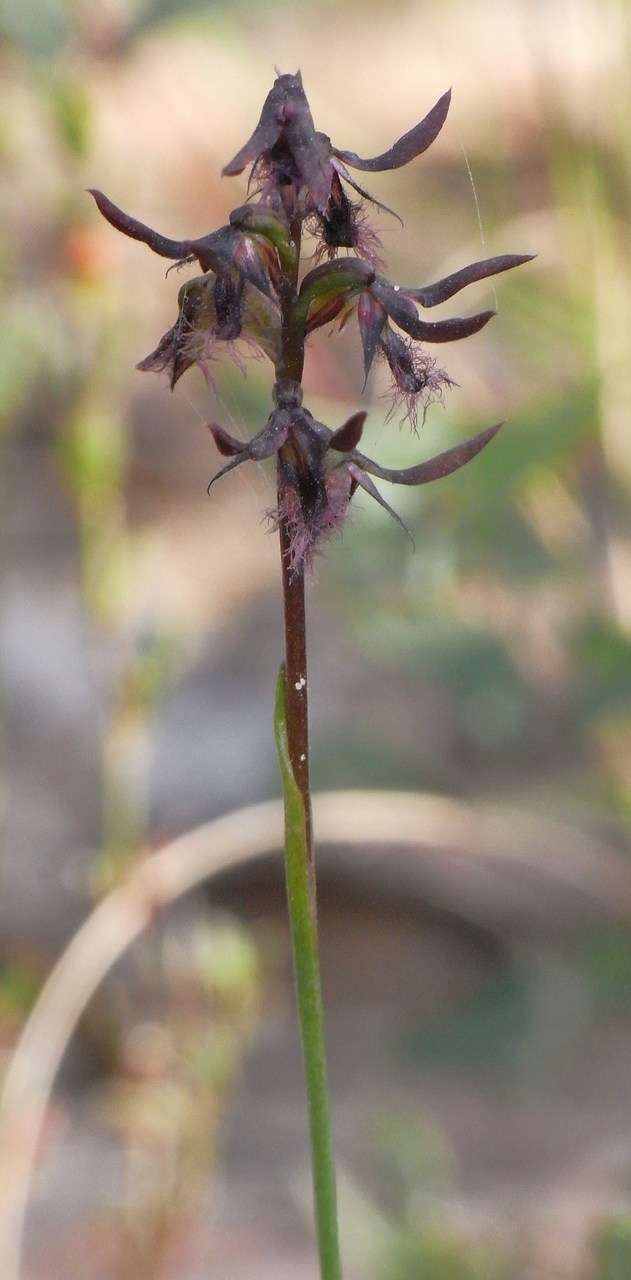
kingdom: Plantae
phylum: Tracheophyta
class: Liliopsida
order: Asparagales
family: Orchidaceae
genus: Genoplesium
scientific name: Genoplesium morrisii
